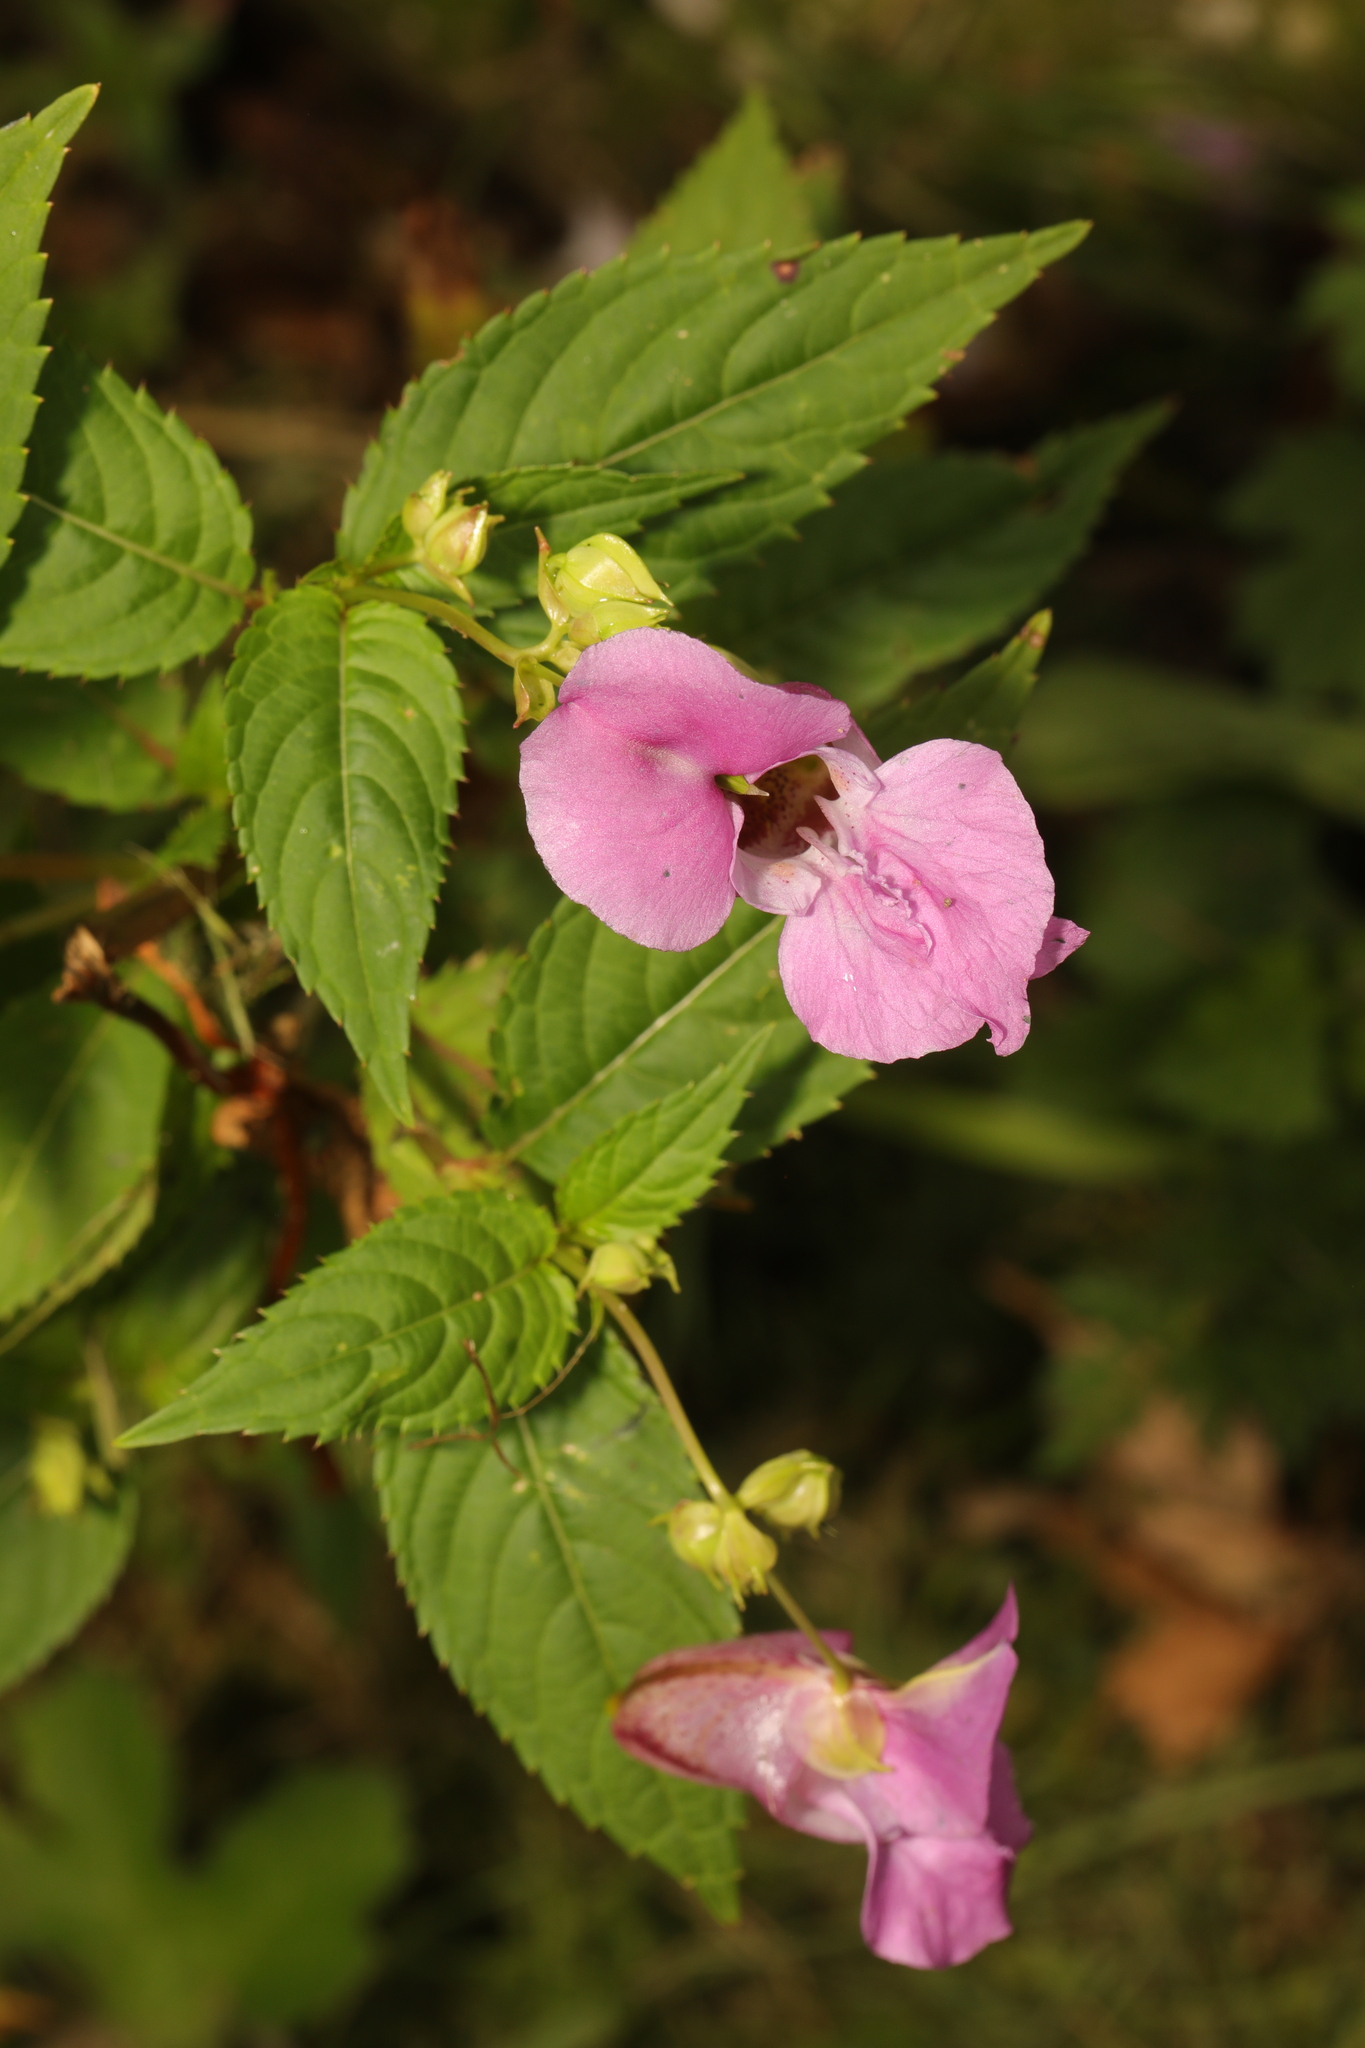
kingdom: Plantae
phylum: Tracheophyta
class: Magnoliopsida
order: Ericales
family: Balsaminaceae
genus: Impatiens
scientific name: Impatiens glandulifera
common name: Himalayan balsam
